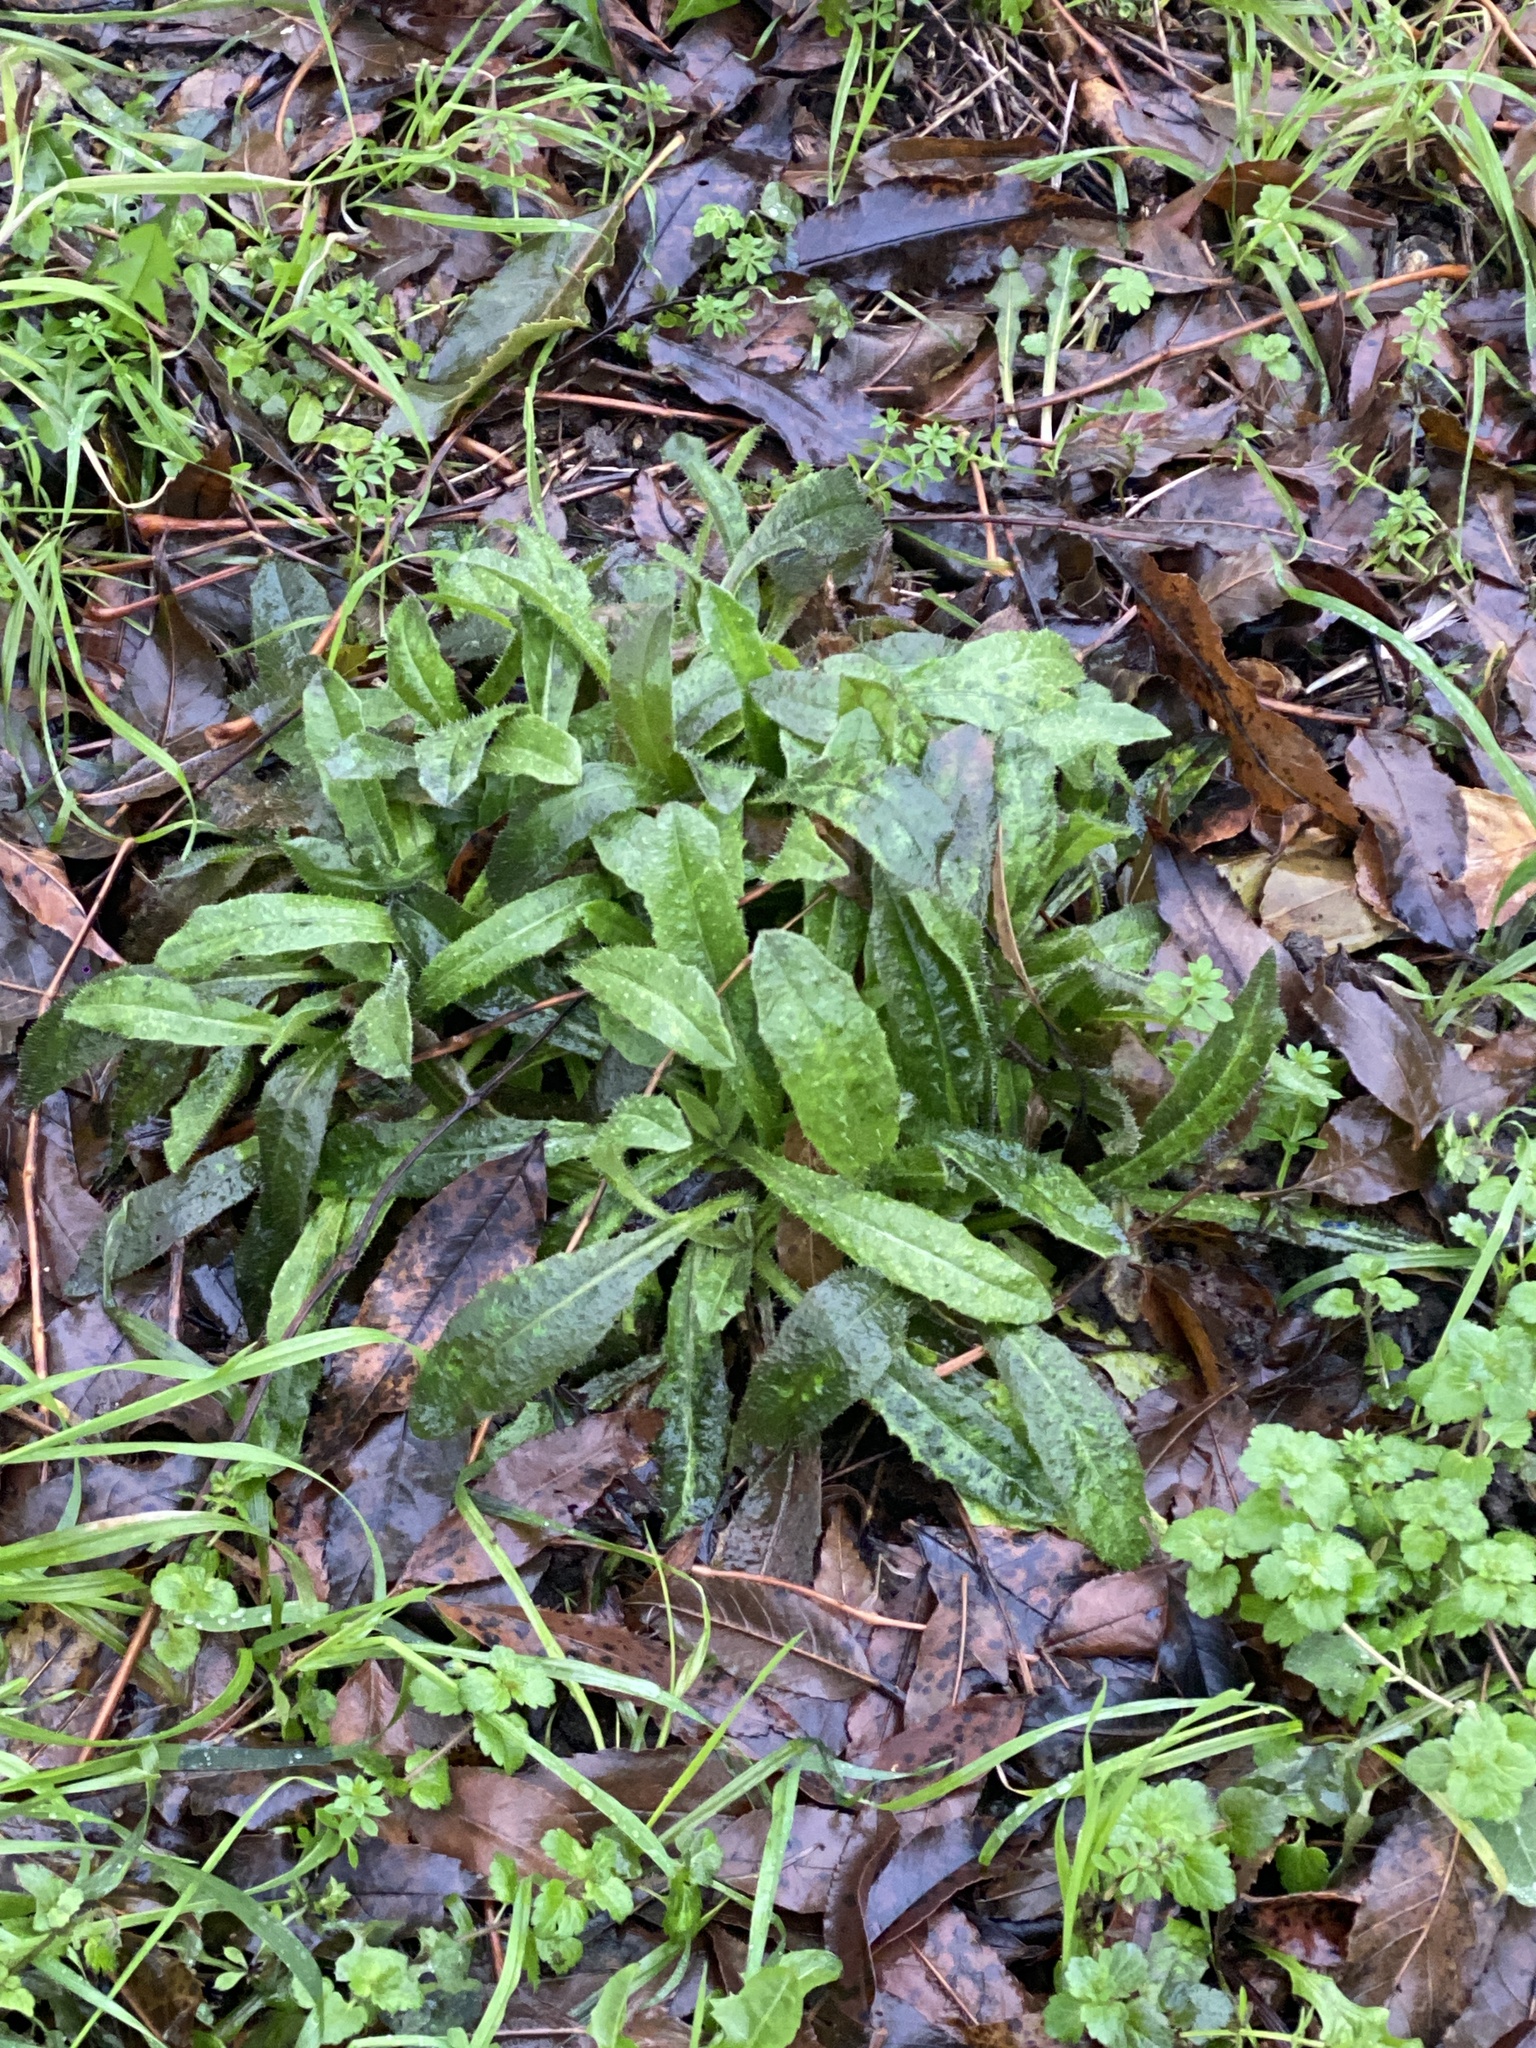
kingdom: Plantae
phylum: Tracheophyta
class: Magnoliopsida
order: Asterales
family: Asteraceae
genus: Helminthotheca
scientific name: Helminthotheca echioides
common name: Ox-tongue
